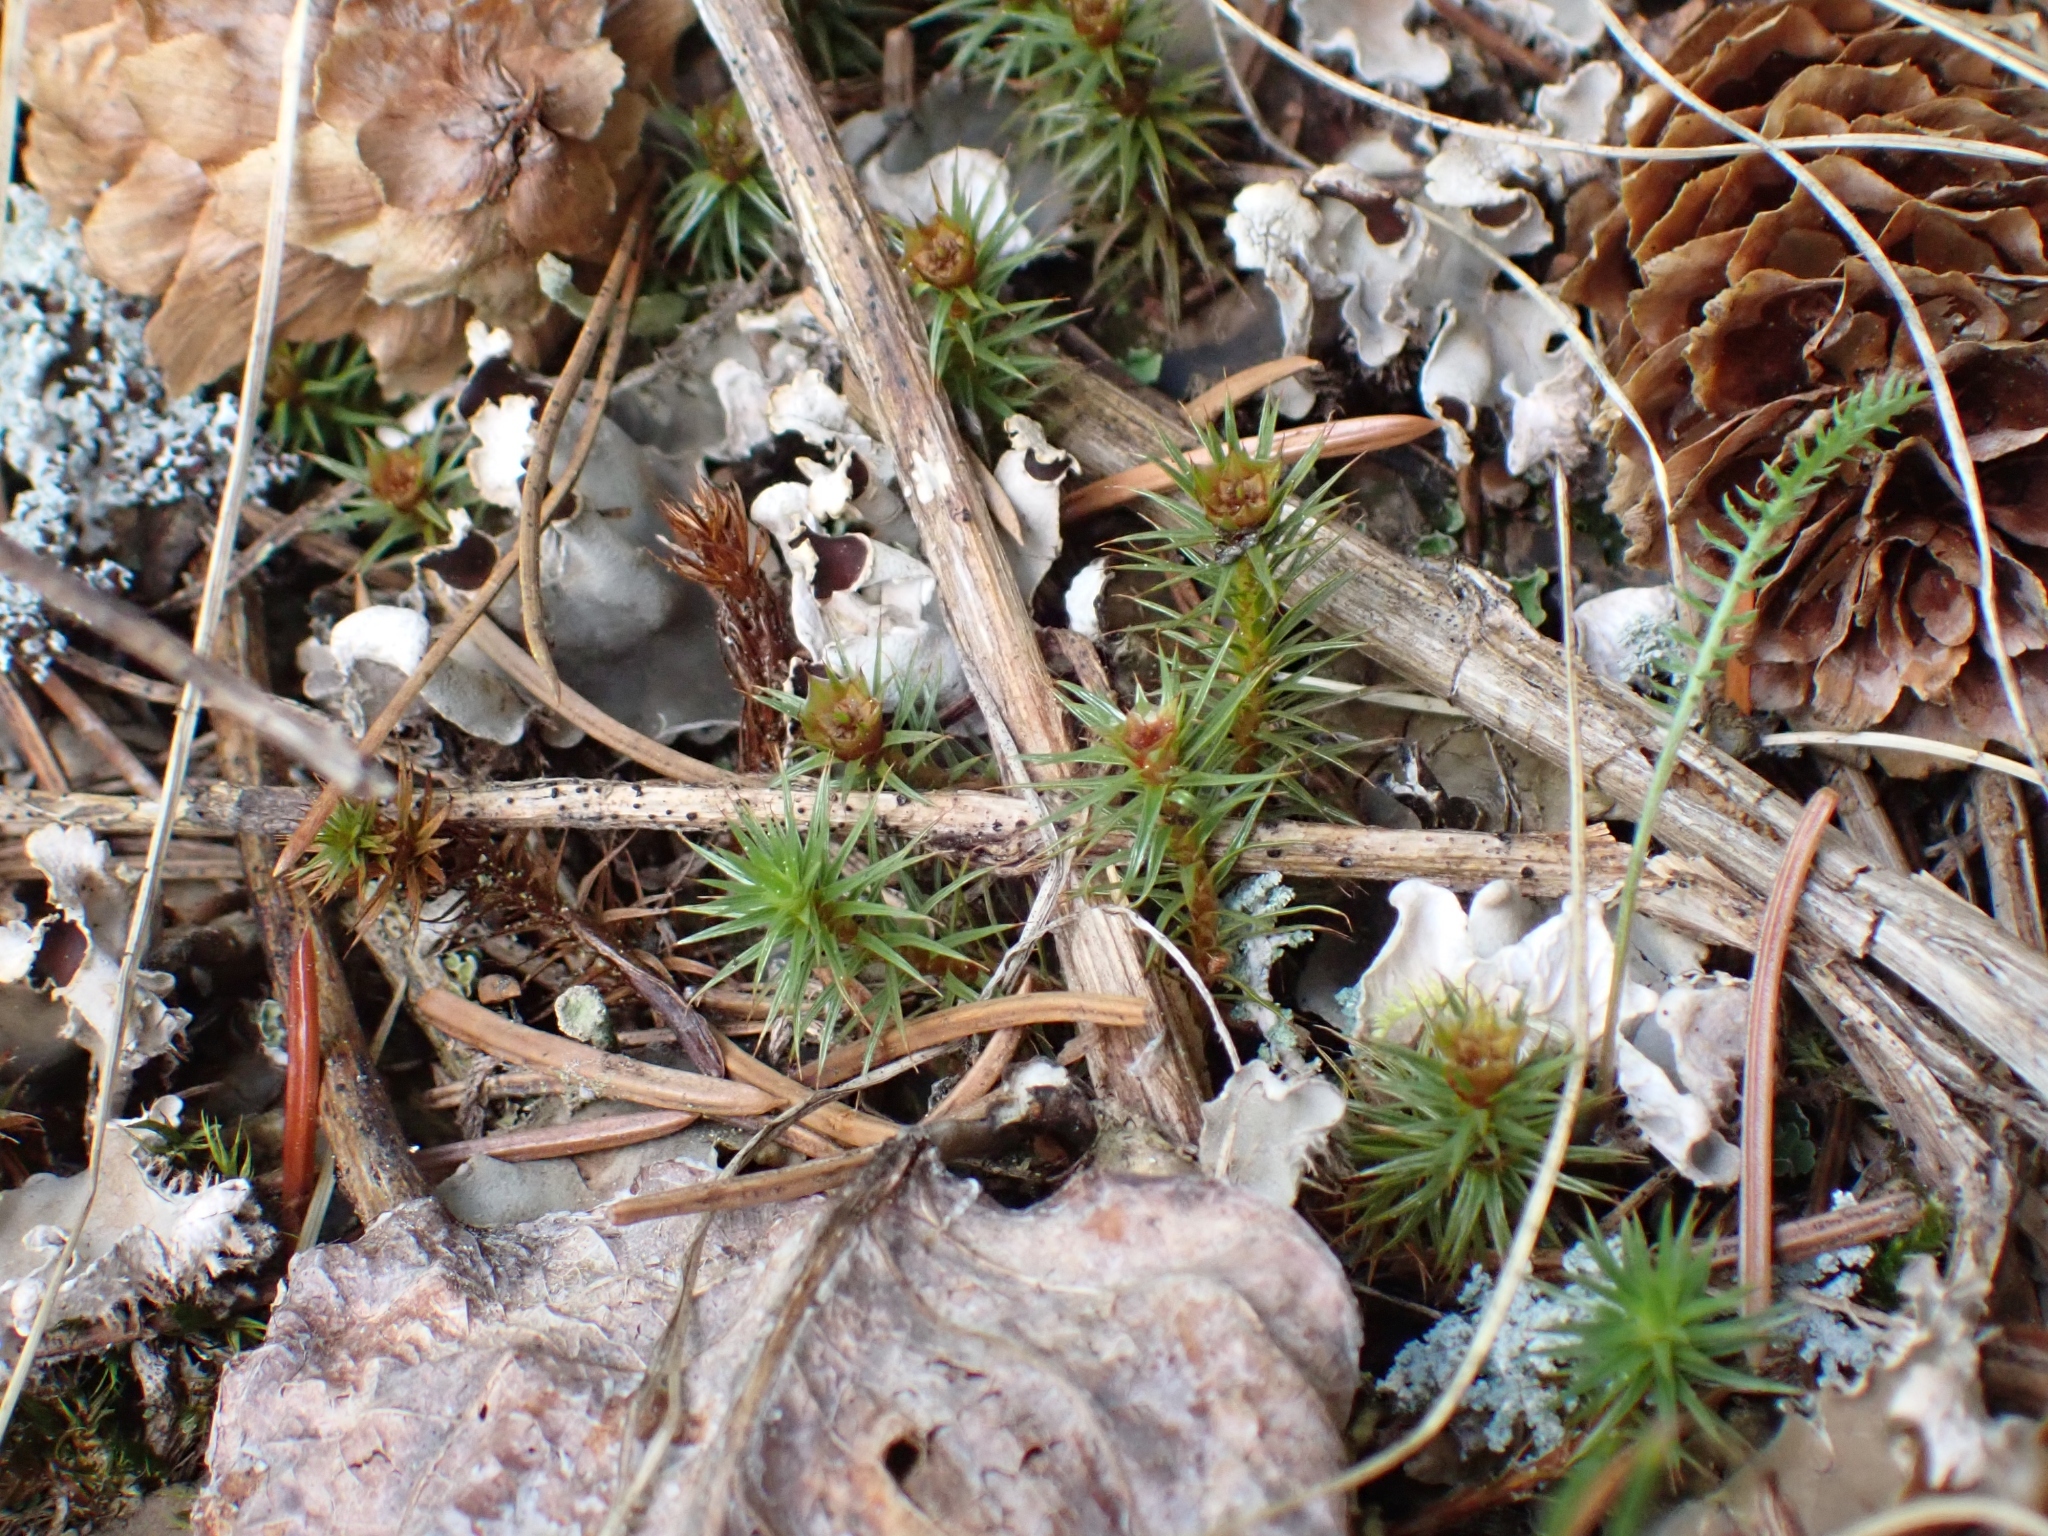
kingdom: Plantae
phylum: Bryophyta
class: Polytrichopsida
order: Polytrichales
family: Polytrichaceae
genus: Polytrichum
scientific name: Polytrichum juniperinum
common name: Juniper haircap moss
